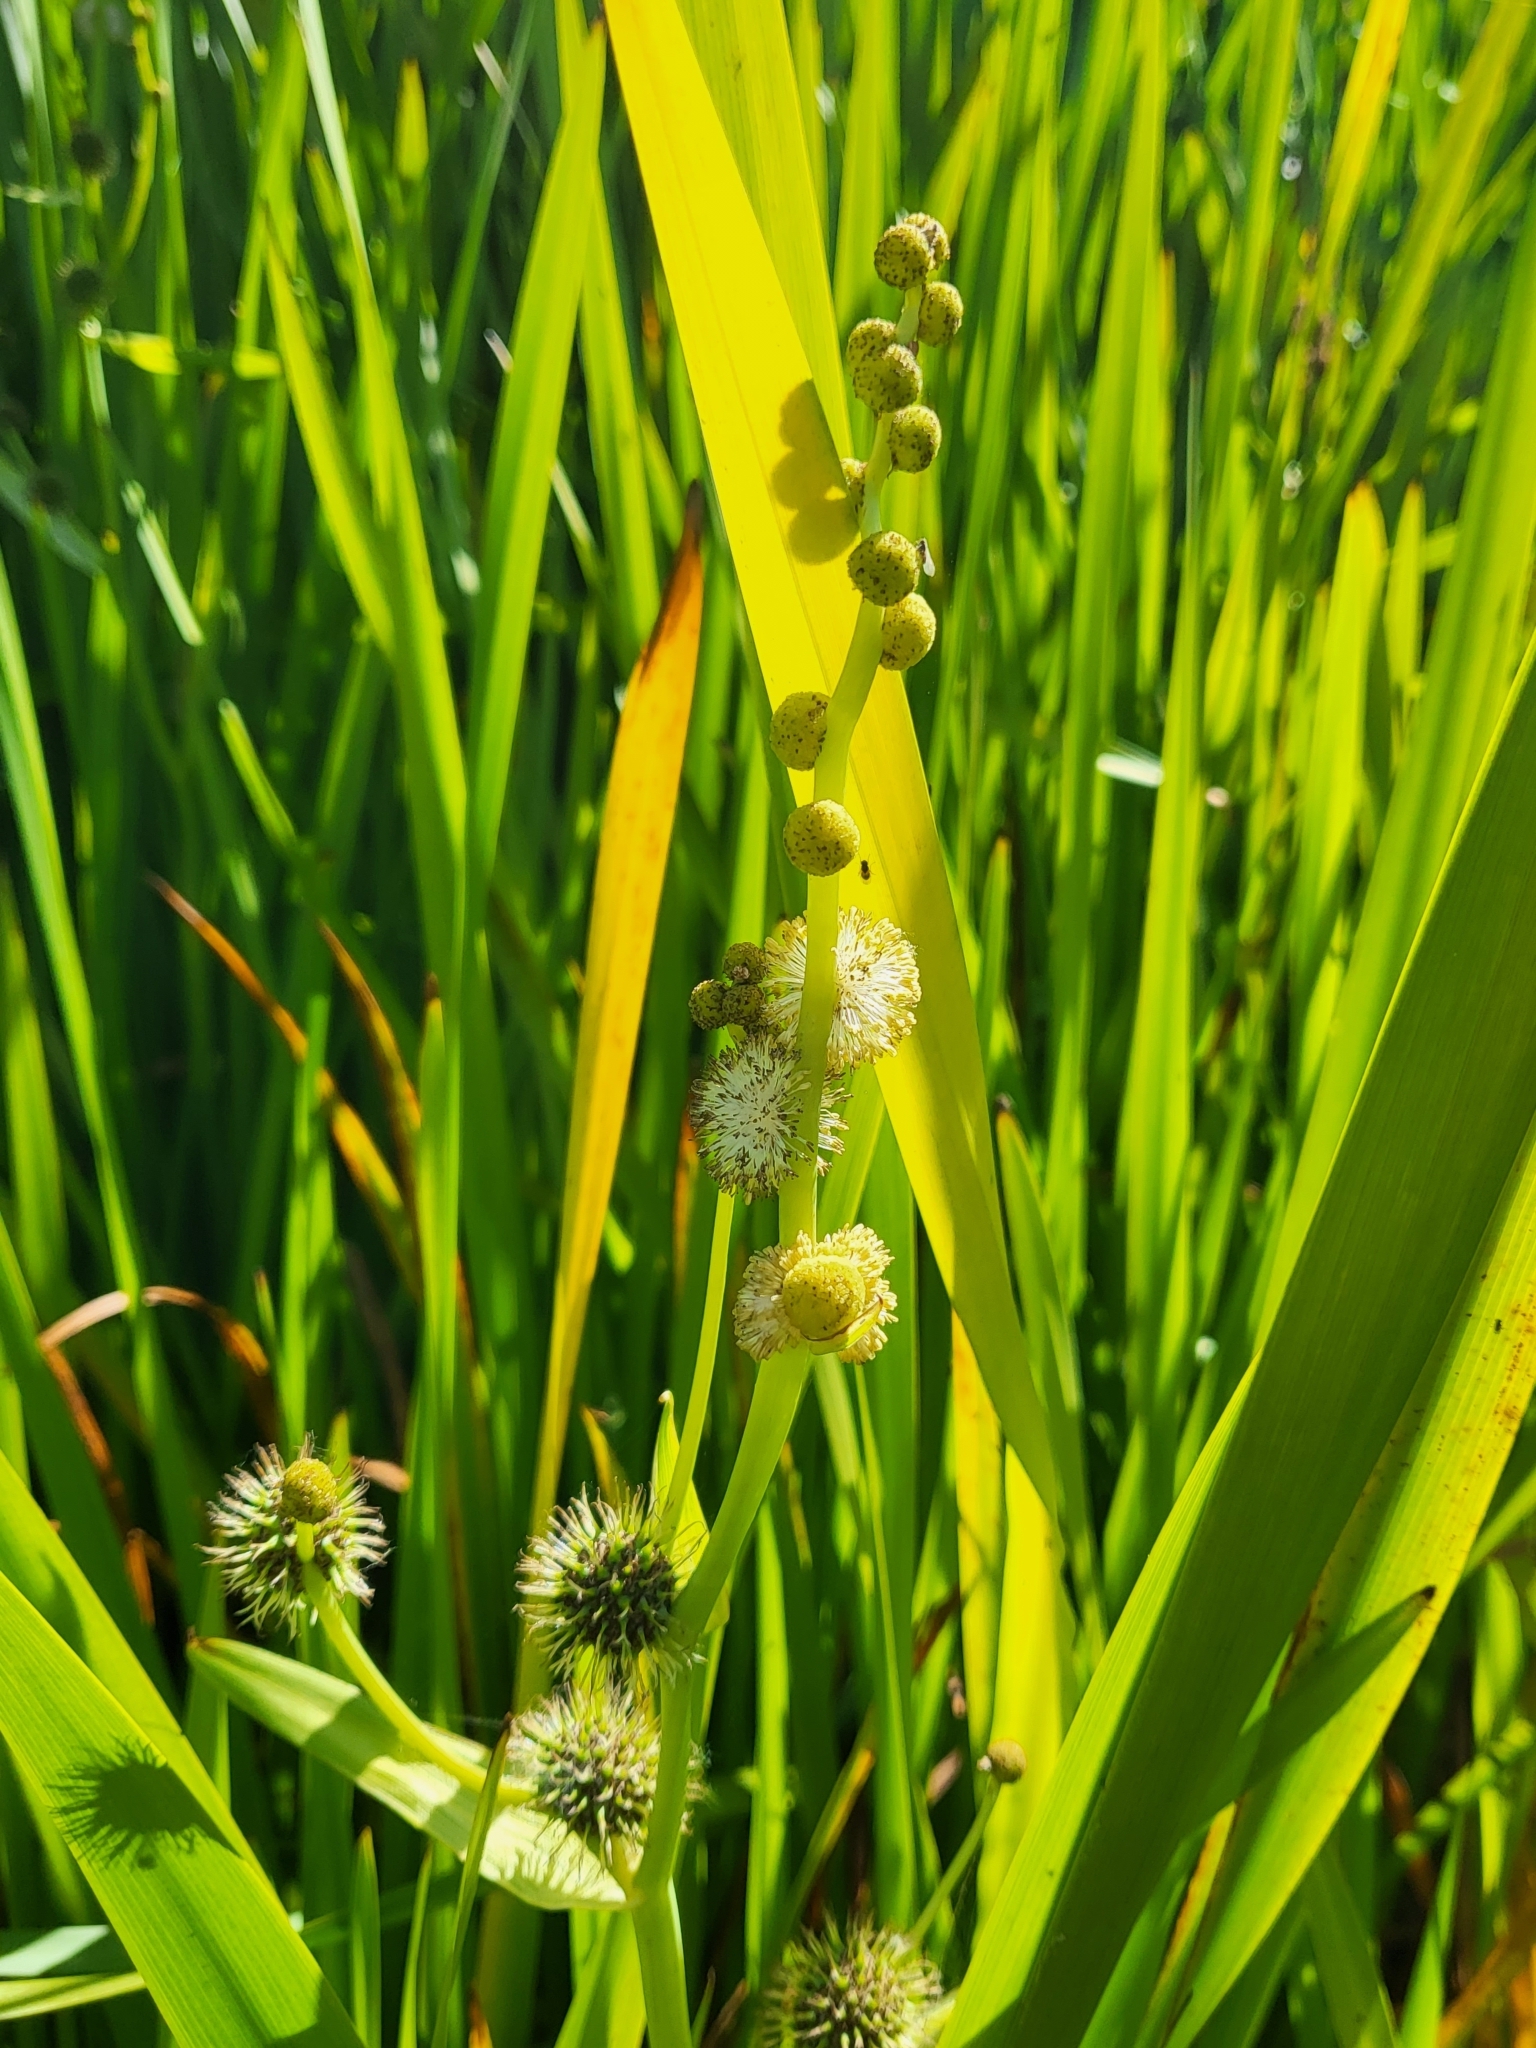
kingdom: Plantae
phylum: Tracheophyta
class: Liliopsida
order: Poales
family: Typhaceae
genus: Sparganium
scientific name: Sparganium eurycarpum
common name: Broad-fruited burreed
